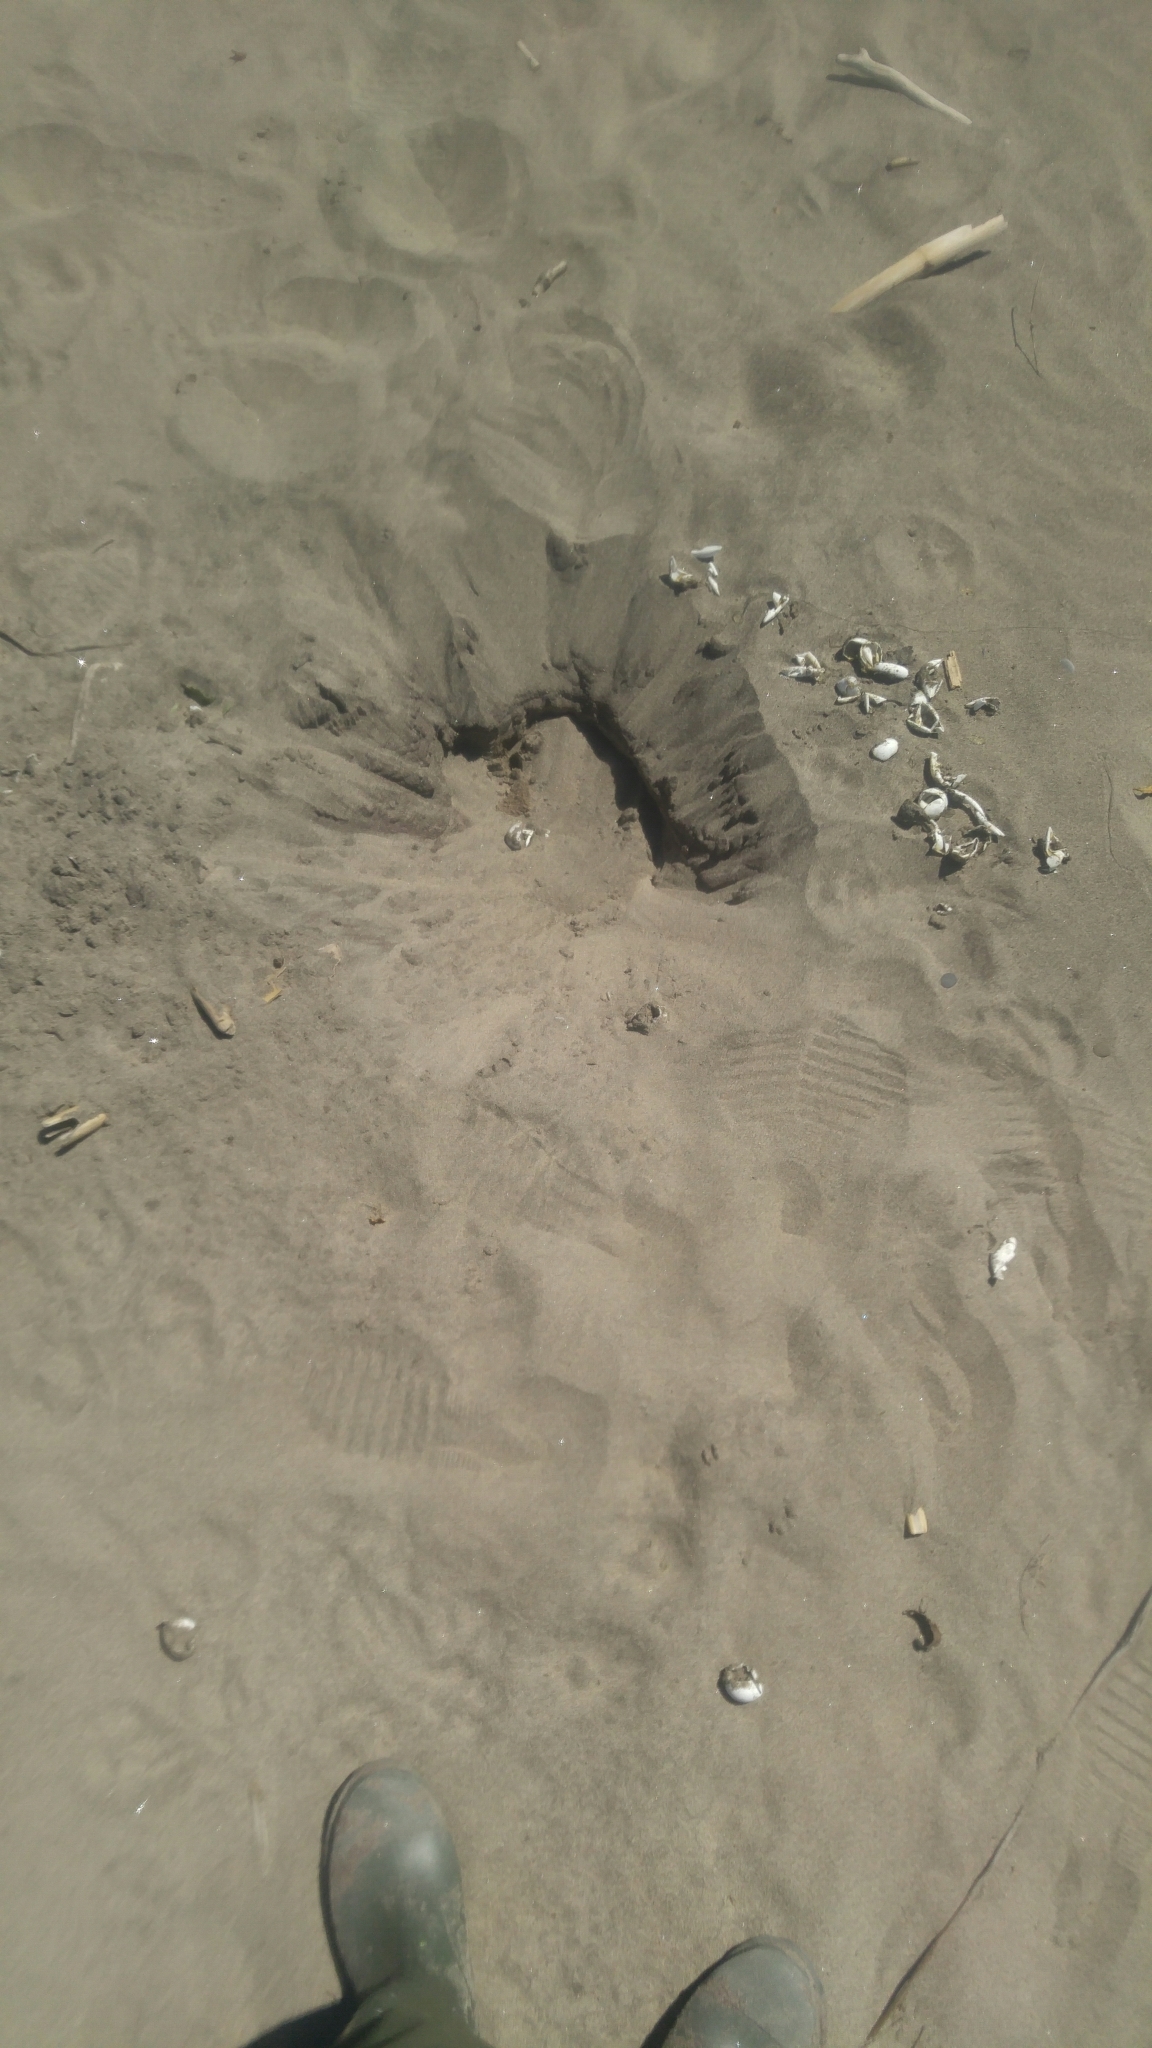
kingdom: Animalia
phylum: Chordata
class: Testudines
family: Chelydridae
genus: Chelydra
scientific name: Chelydra serpentina
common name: Common snapping turtle
